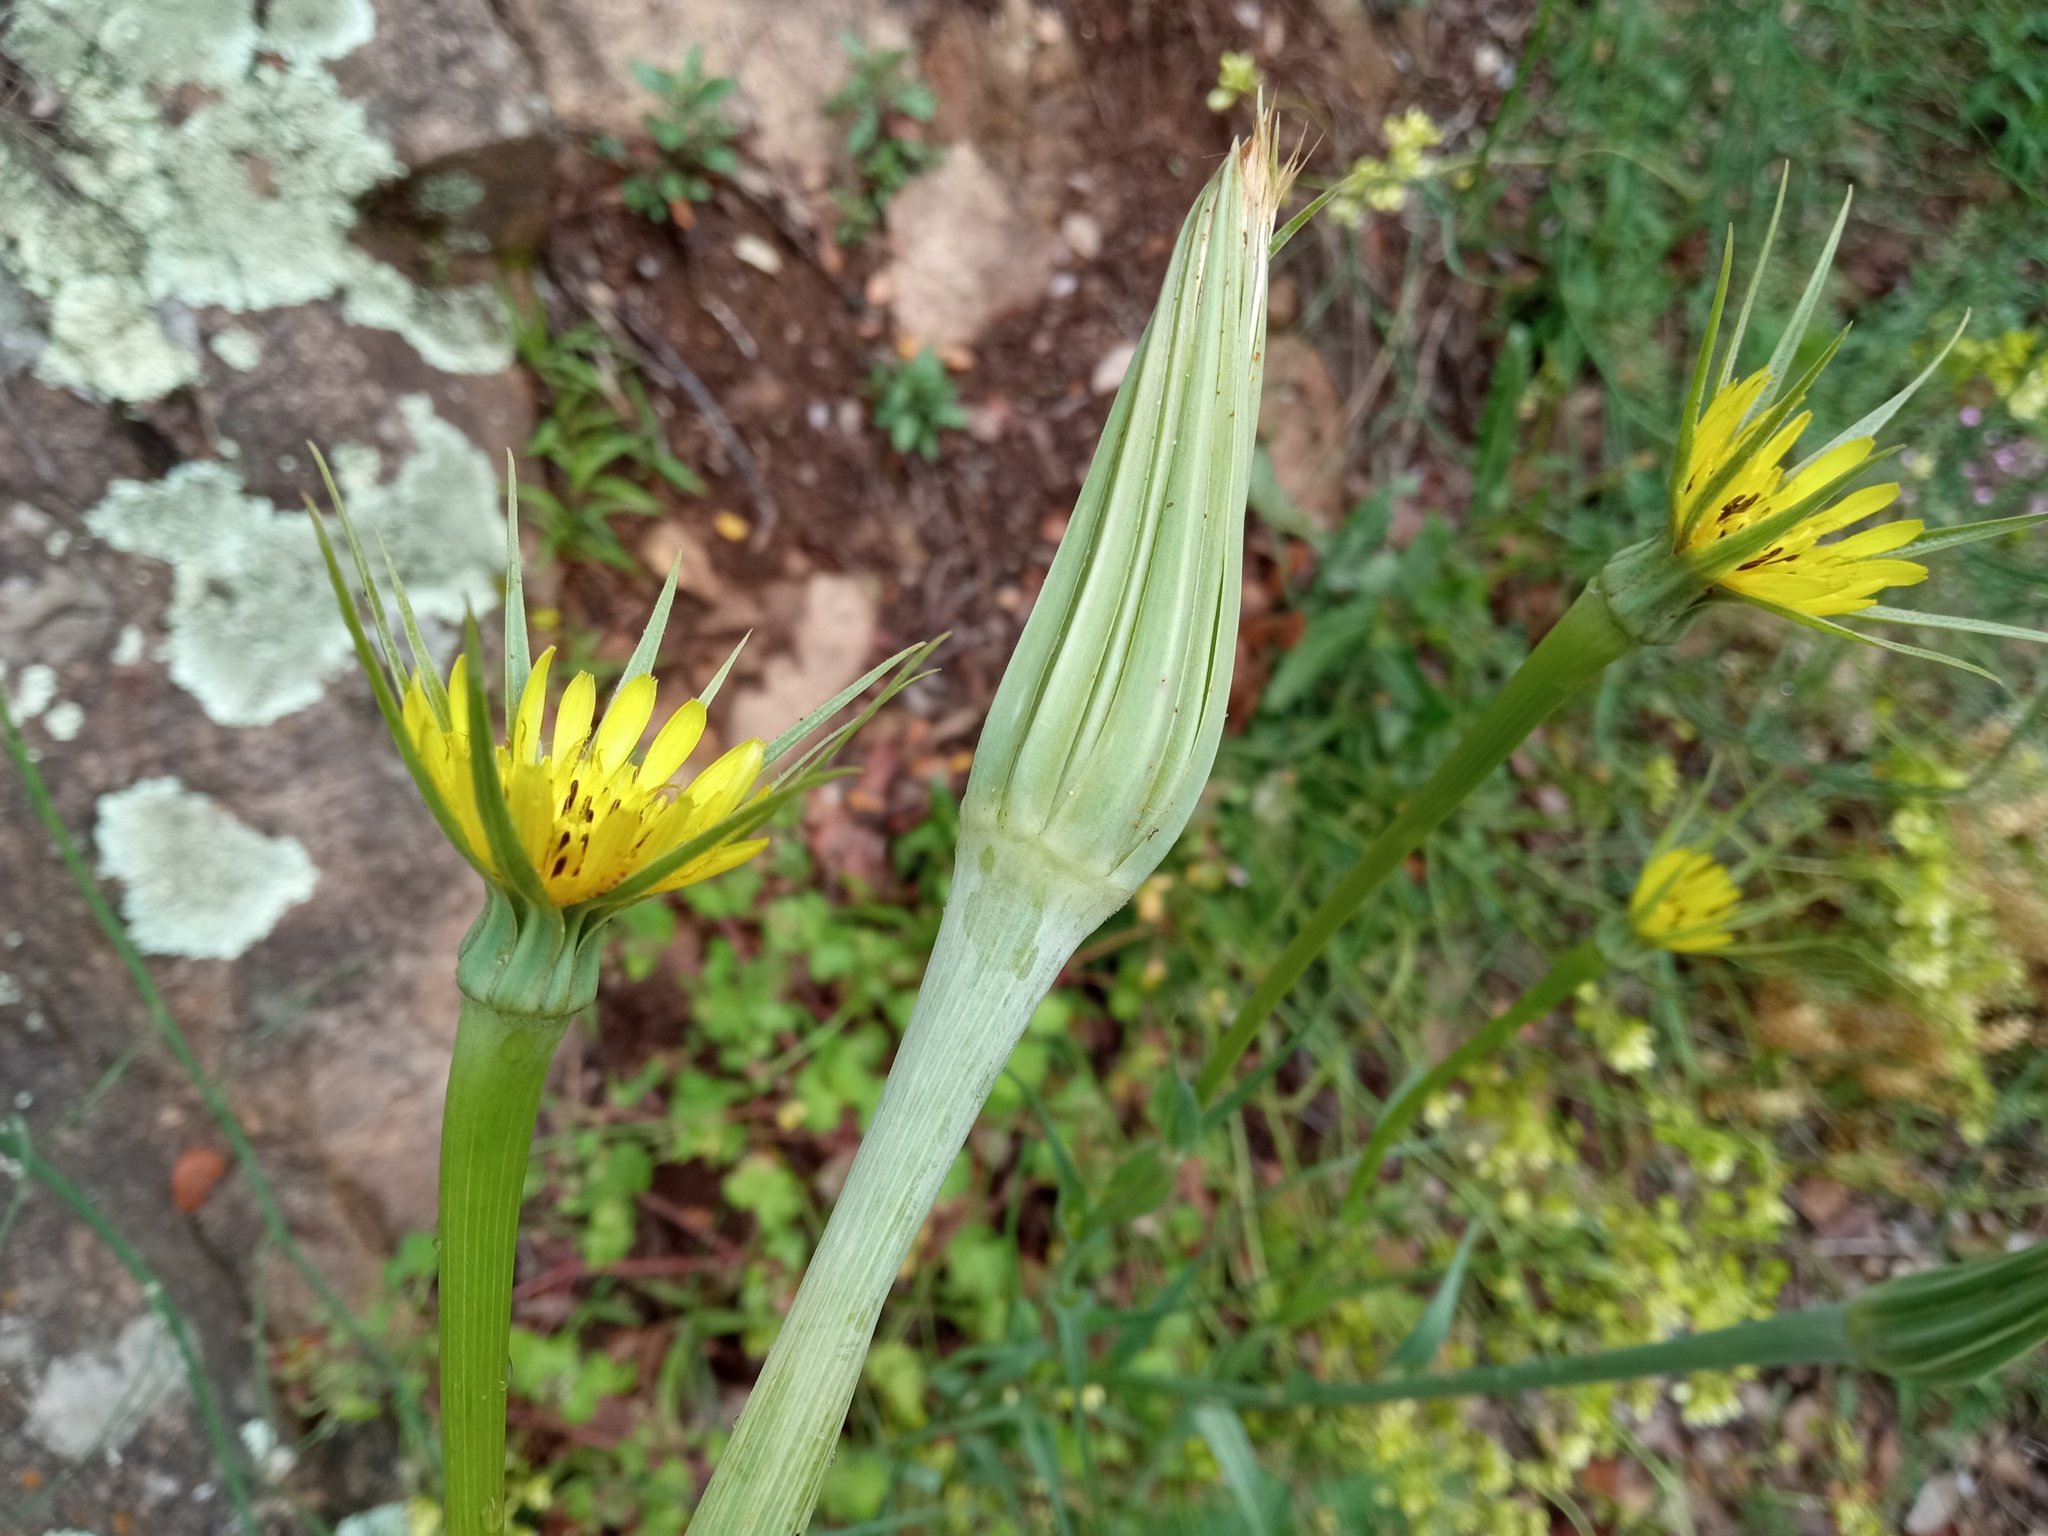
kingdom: Plantae
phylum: Tracheophyta
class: Magnoliopsida
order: Asterales
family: Asteraceae
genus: Tragopogon
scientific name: Tragopogon dubius
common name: Yellow salsify
